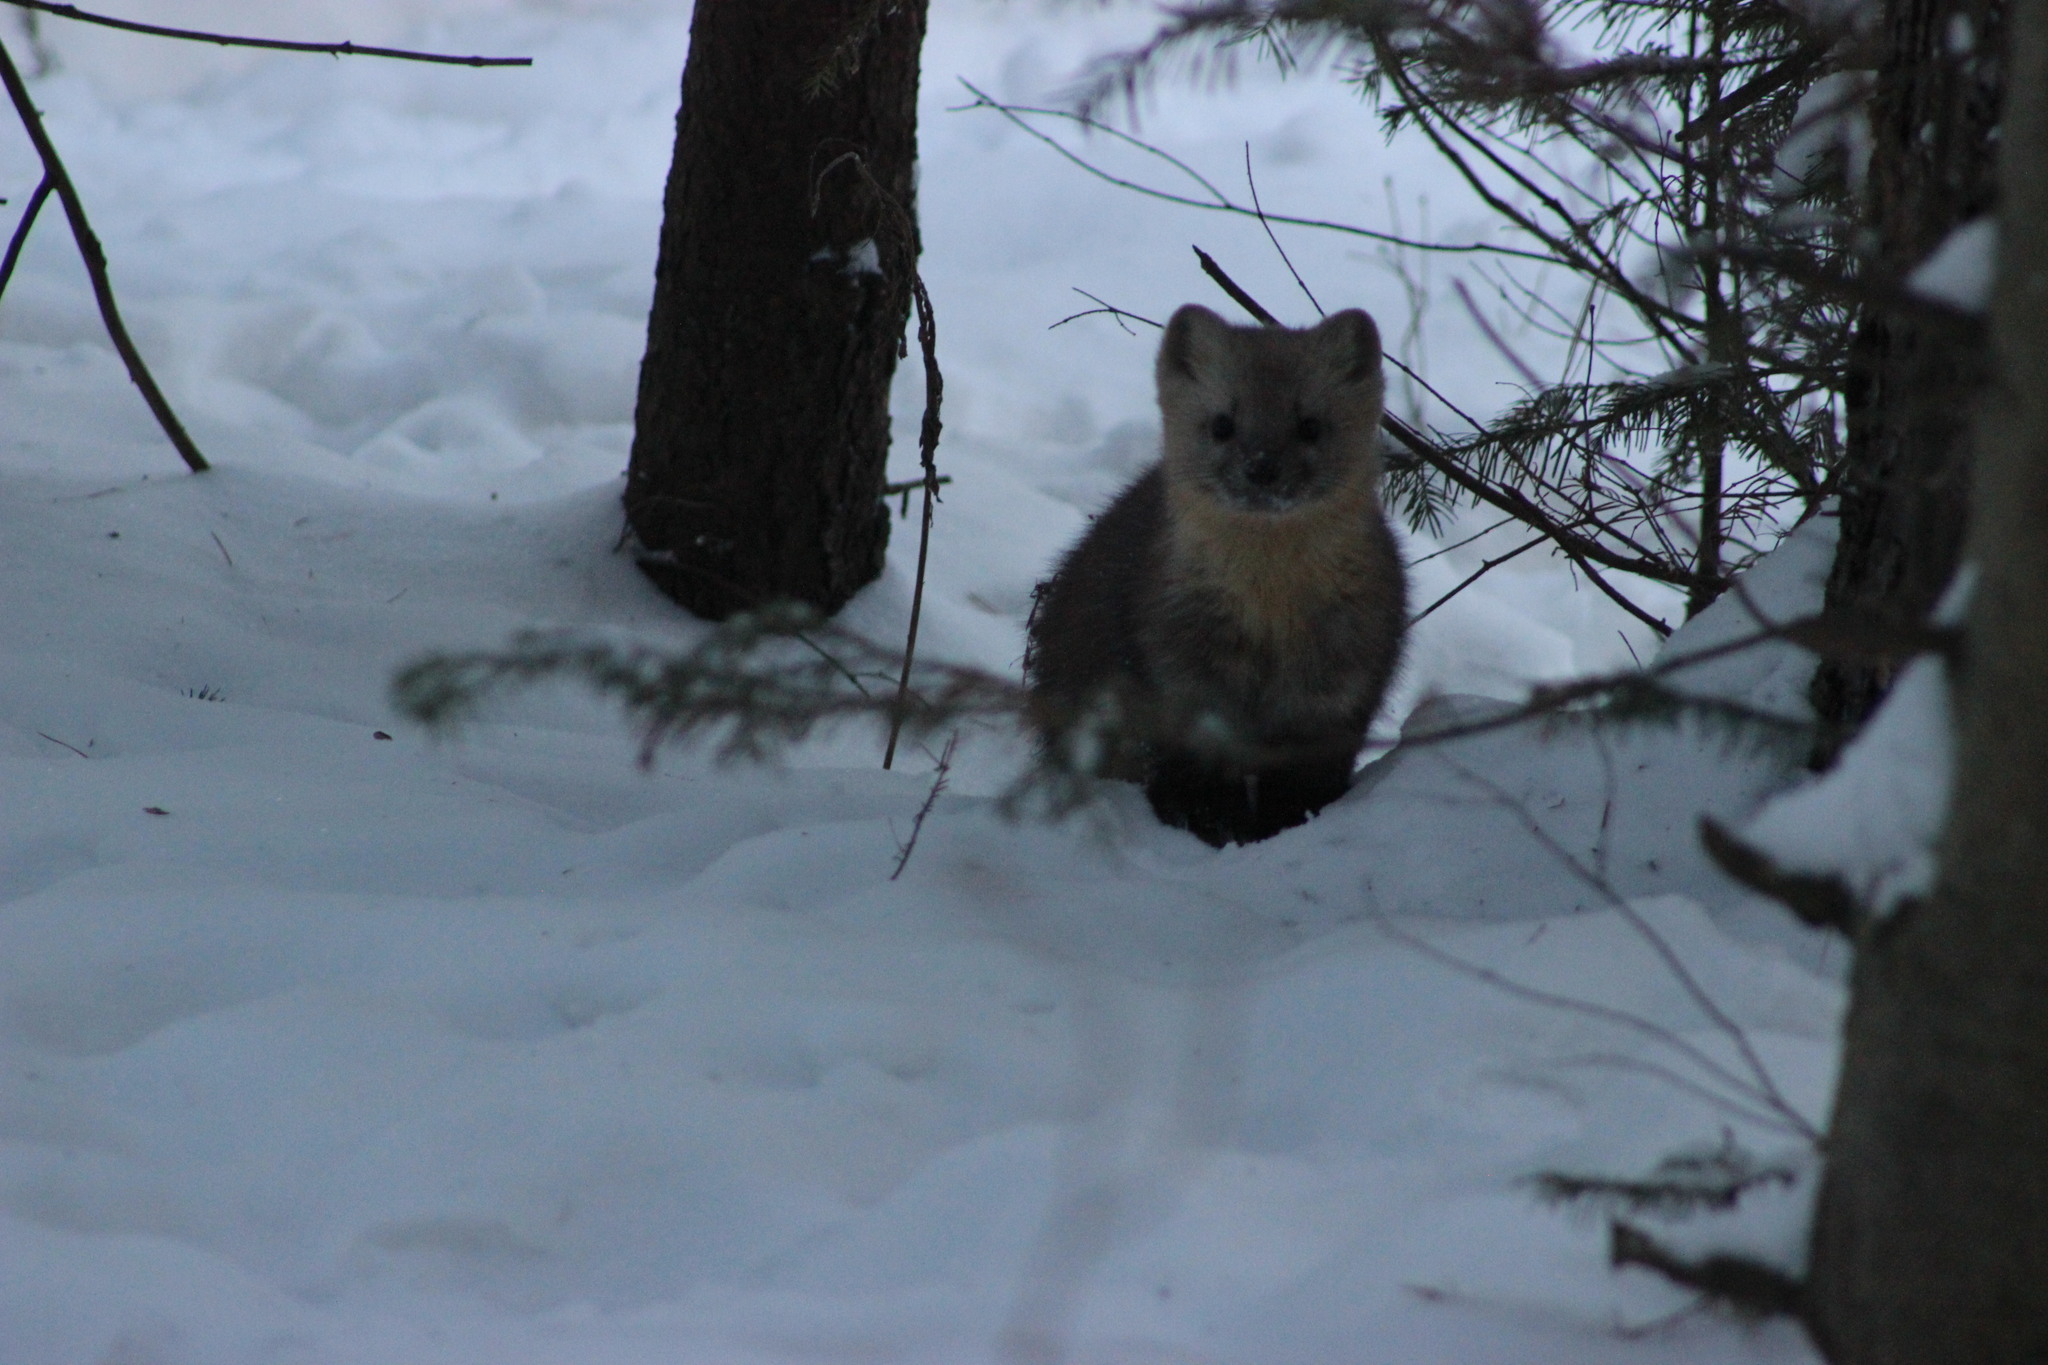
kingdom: Animalia
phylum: Chordata
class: Mammalia
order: Carnivora
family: Mustelidae
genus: Martes
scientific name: Martes zibellina
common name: Sable
